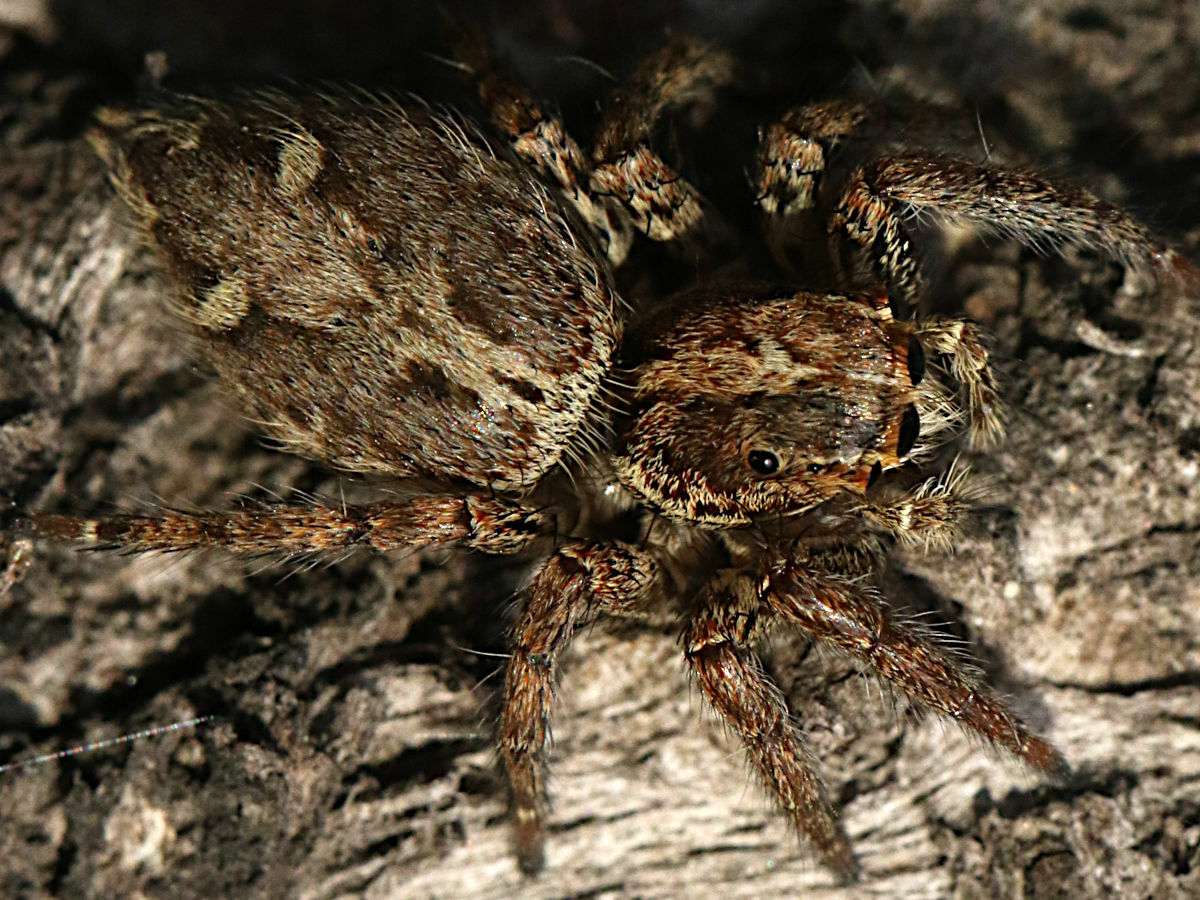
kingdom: Animalia
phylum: Arthropoda
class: Arachnida
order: Araneae
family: Salticidae
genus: Plexippus
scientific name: Plexippus paykulli
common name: Pantropical jumper
